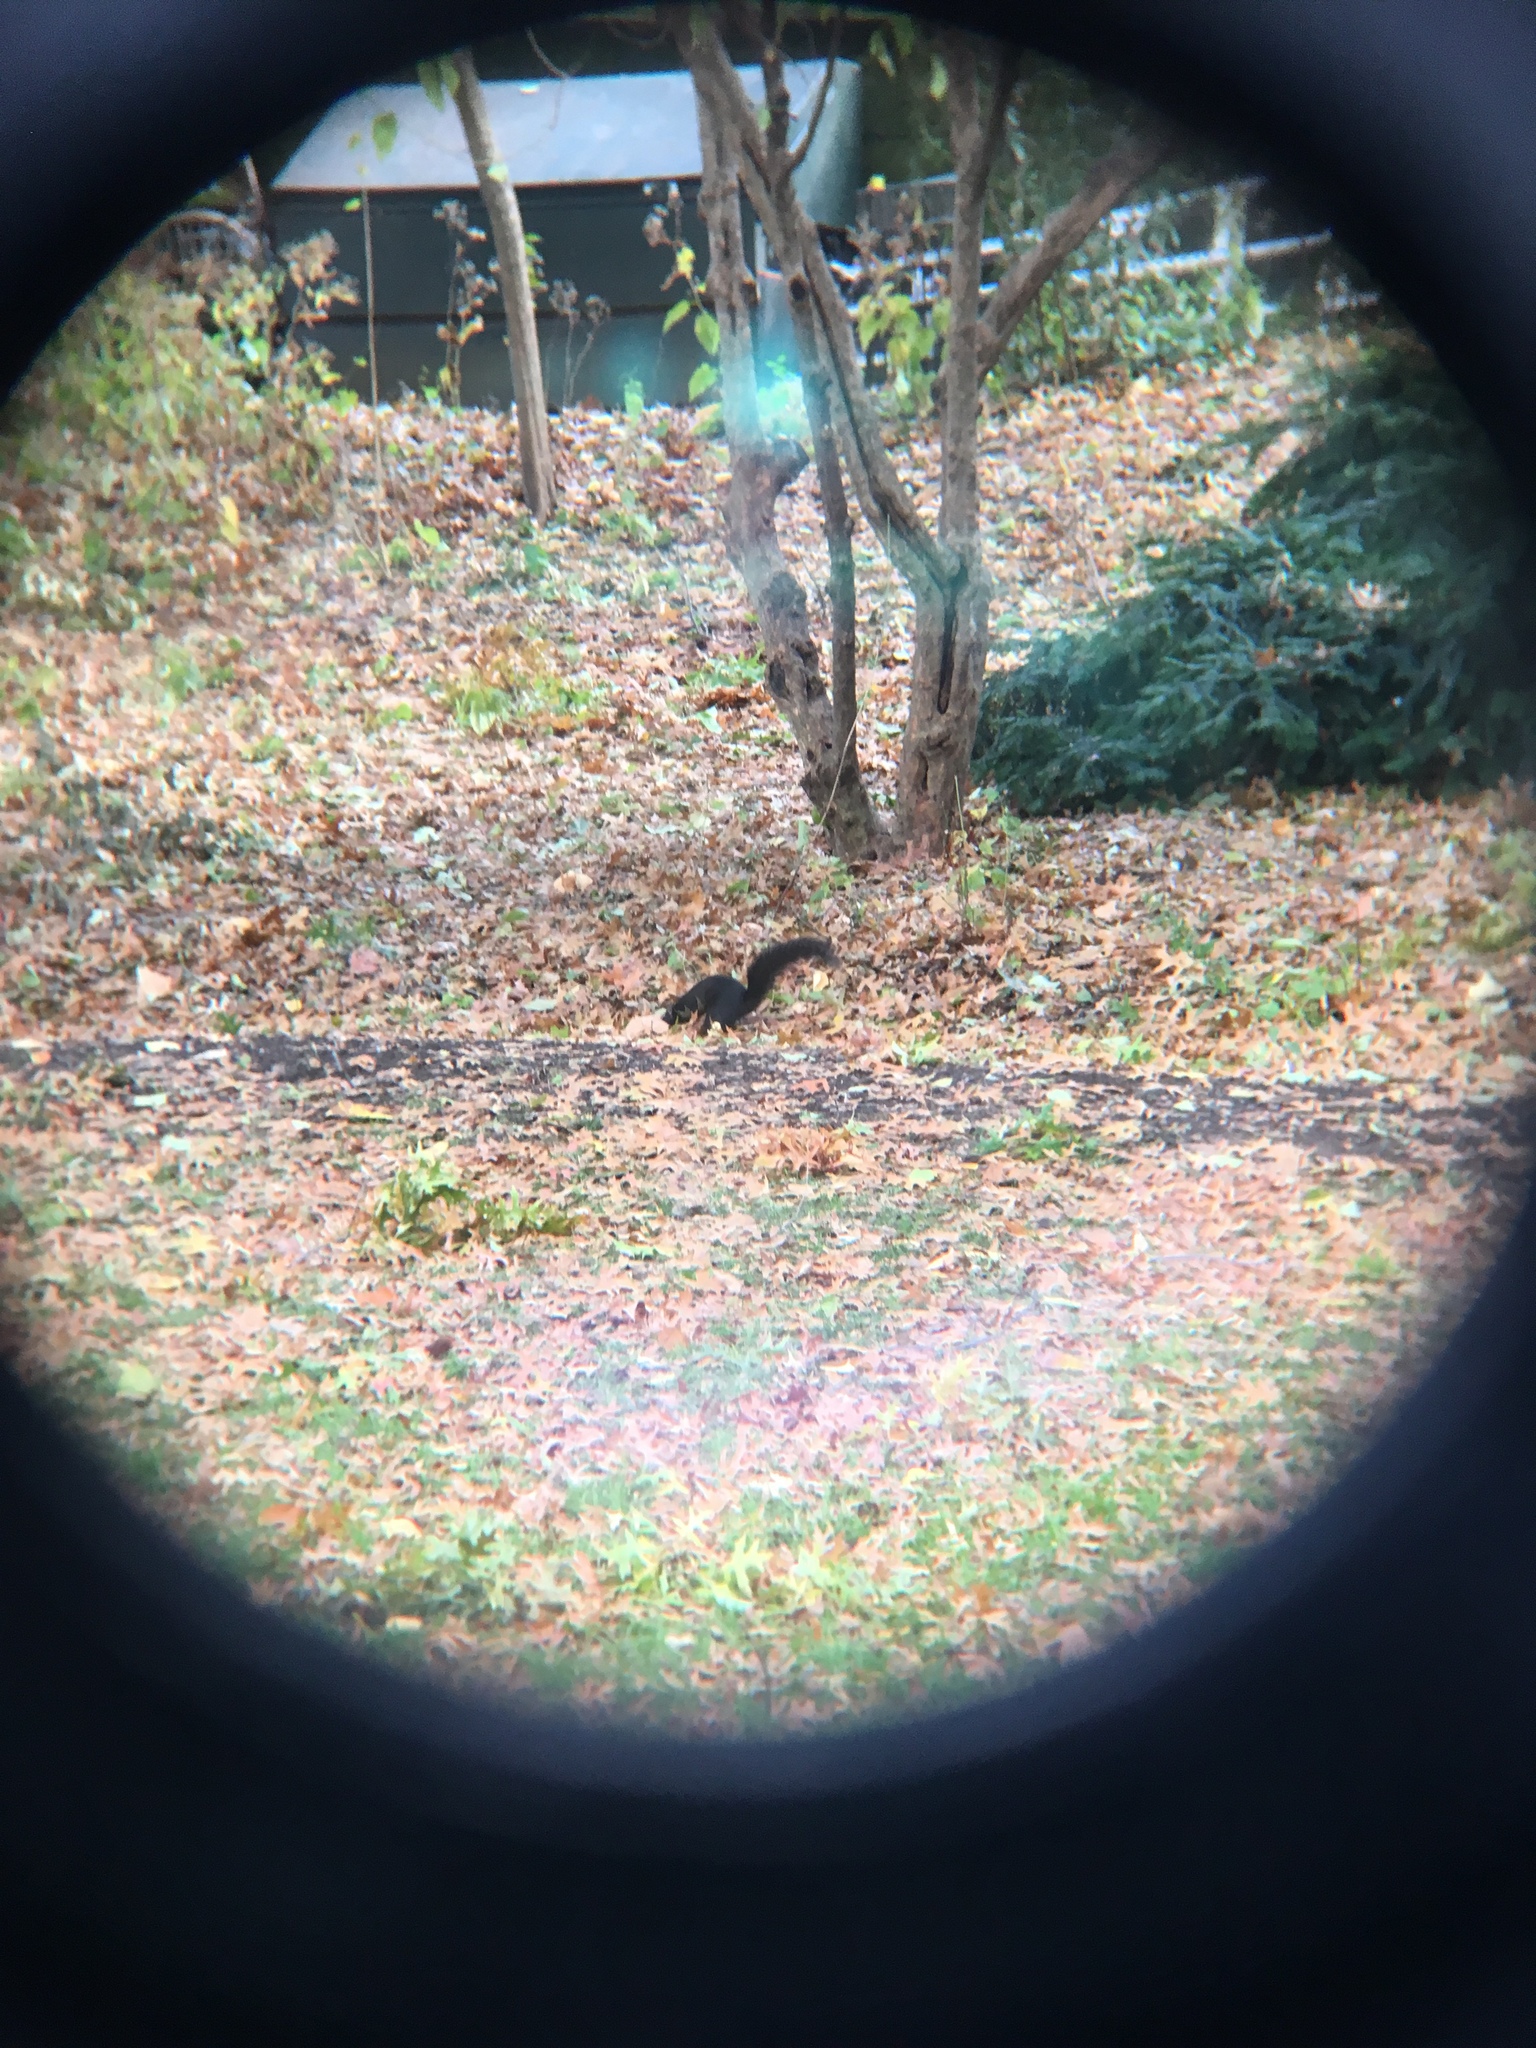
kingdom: Animalia
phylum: Chordata
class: Mammalia
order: Rodentia
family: Sciuridae
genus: Sciurus
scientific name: Sciurus carolinensis
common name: Eastern gray squirrel
